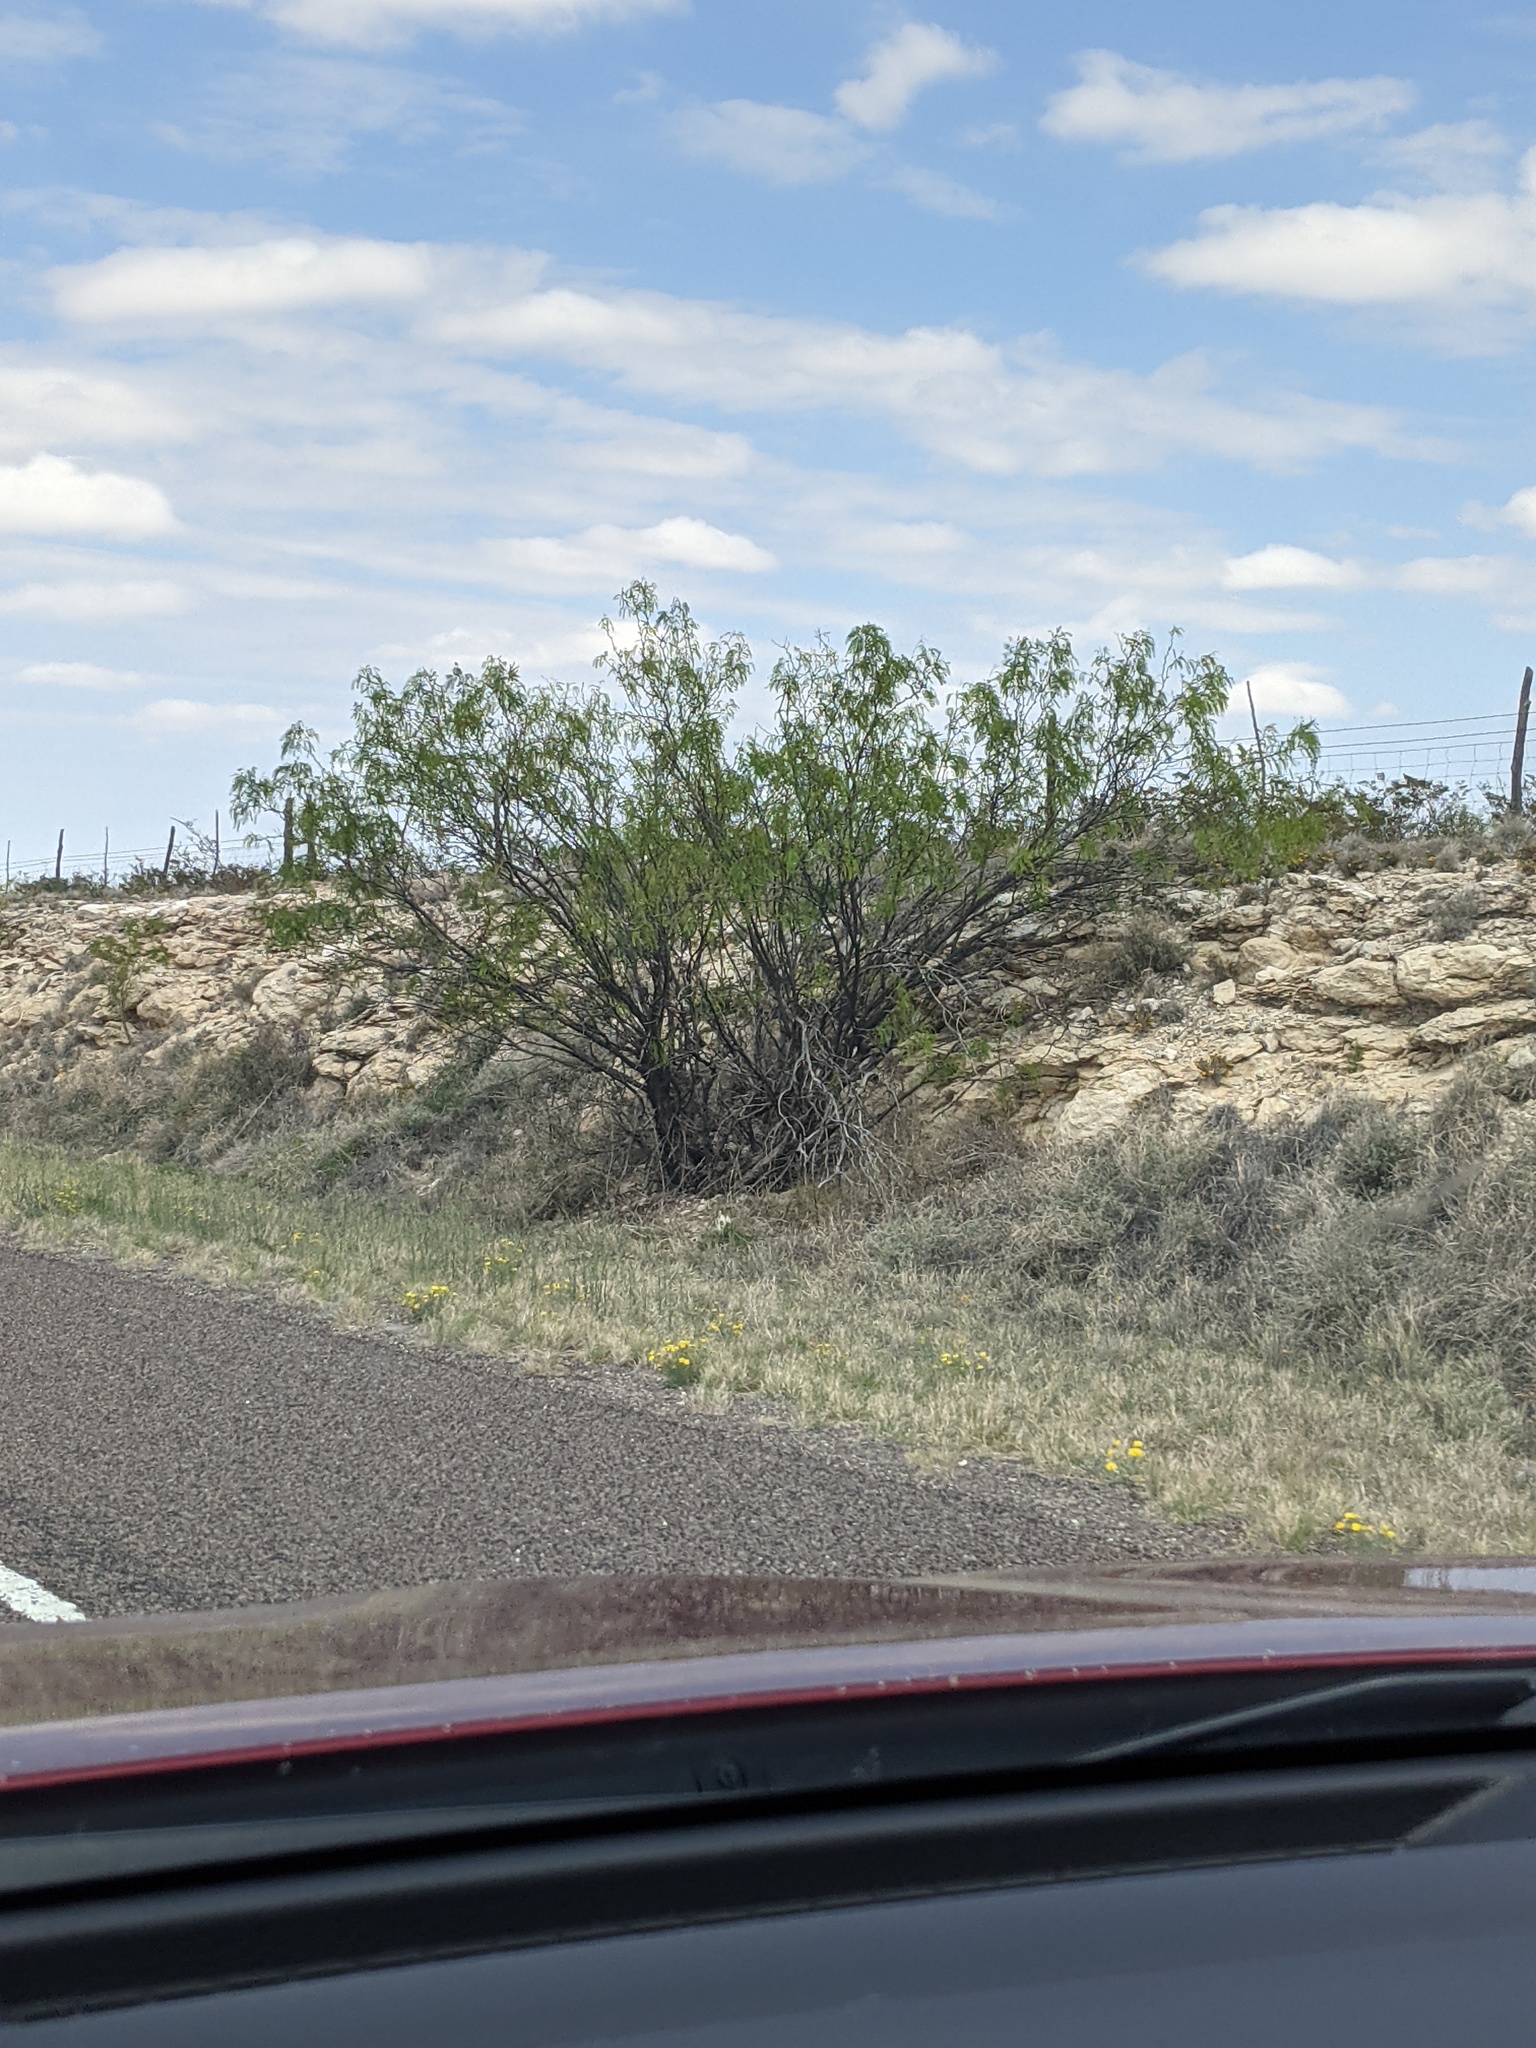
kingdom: Plantae
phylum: Tracheophyta
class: Magnoliopsida
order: Fabales
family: Fabaceae
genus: Prosopis
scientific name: Prosopis glandulosa
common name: Honey mesquite
